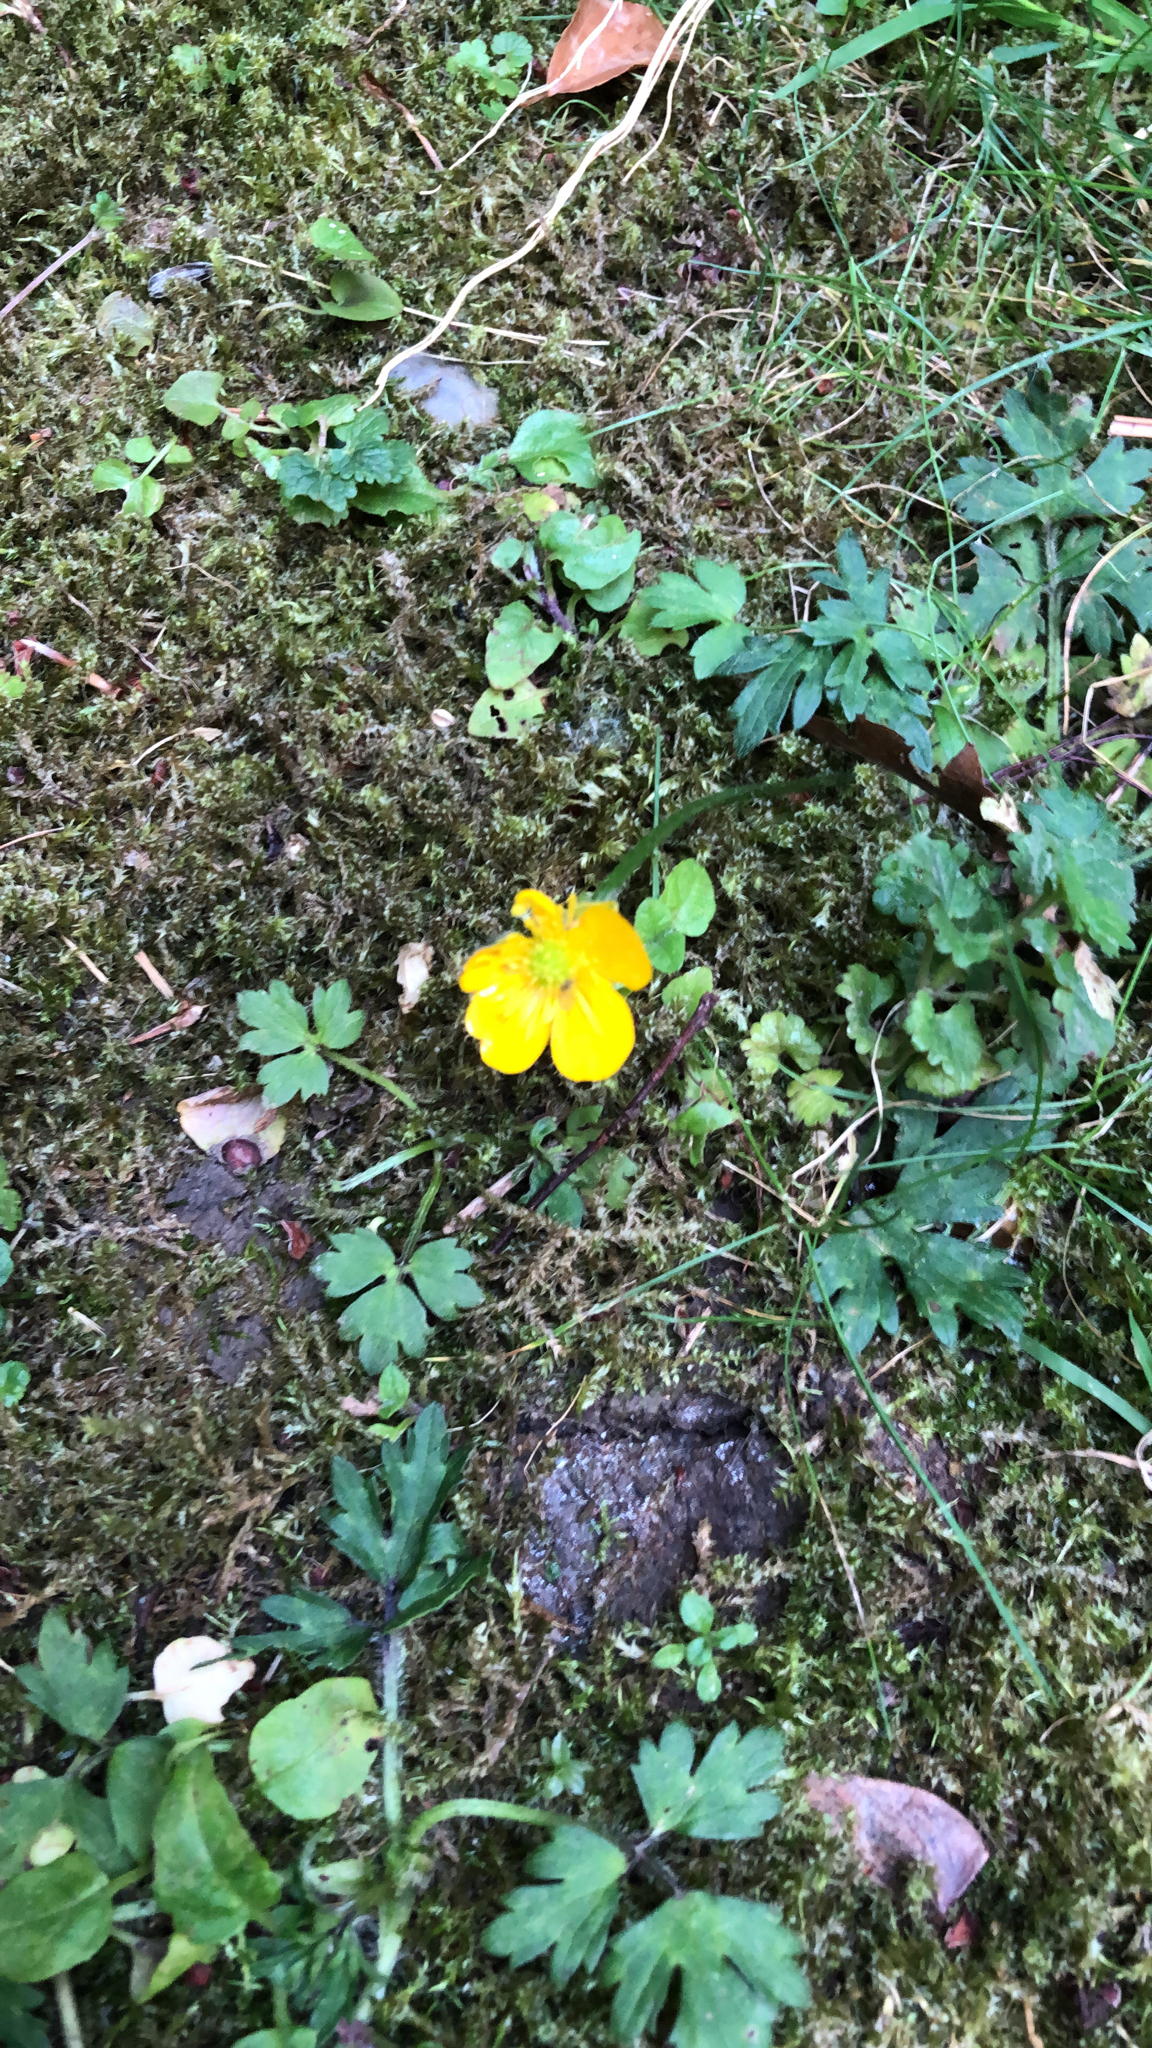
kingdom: Plantae
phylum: Tracheophyta
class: Magnoliopsida
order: Ranunculales
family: Ranunculaceae
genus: Ranunculus
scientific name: Ranunculus repens
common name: Creeping buttercup
